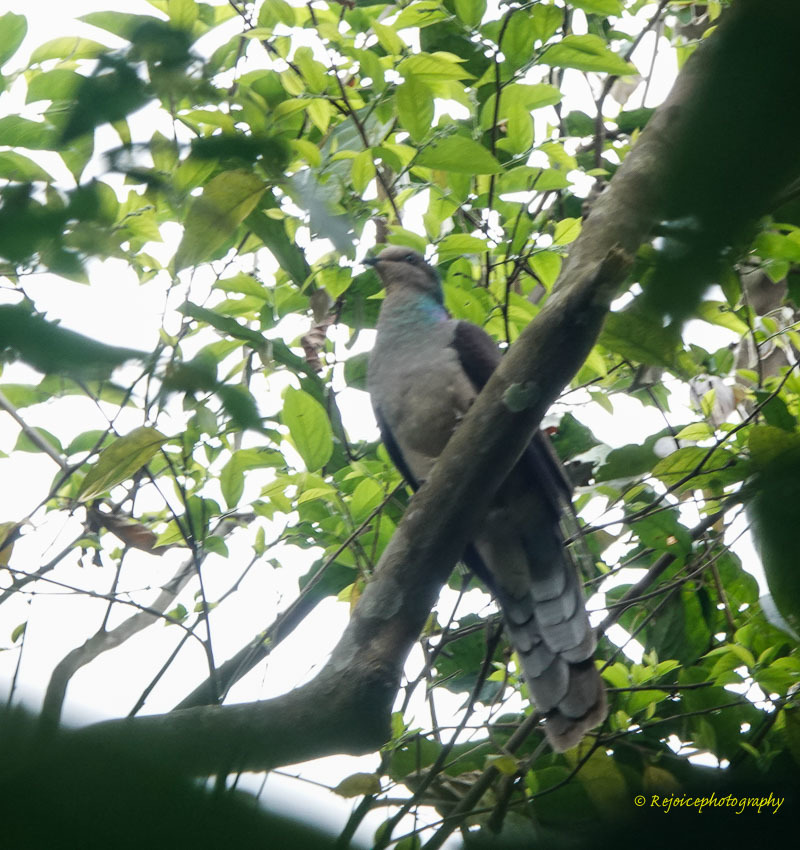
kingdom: Animalia
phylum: Chordata
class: Aves
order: Columbiformes
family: Columbidae
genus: Macropygia
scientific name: Macropygia unchall
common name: Barred cuckoo-dove
